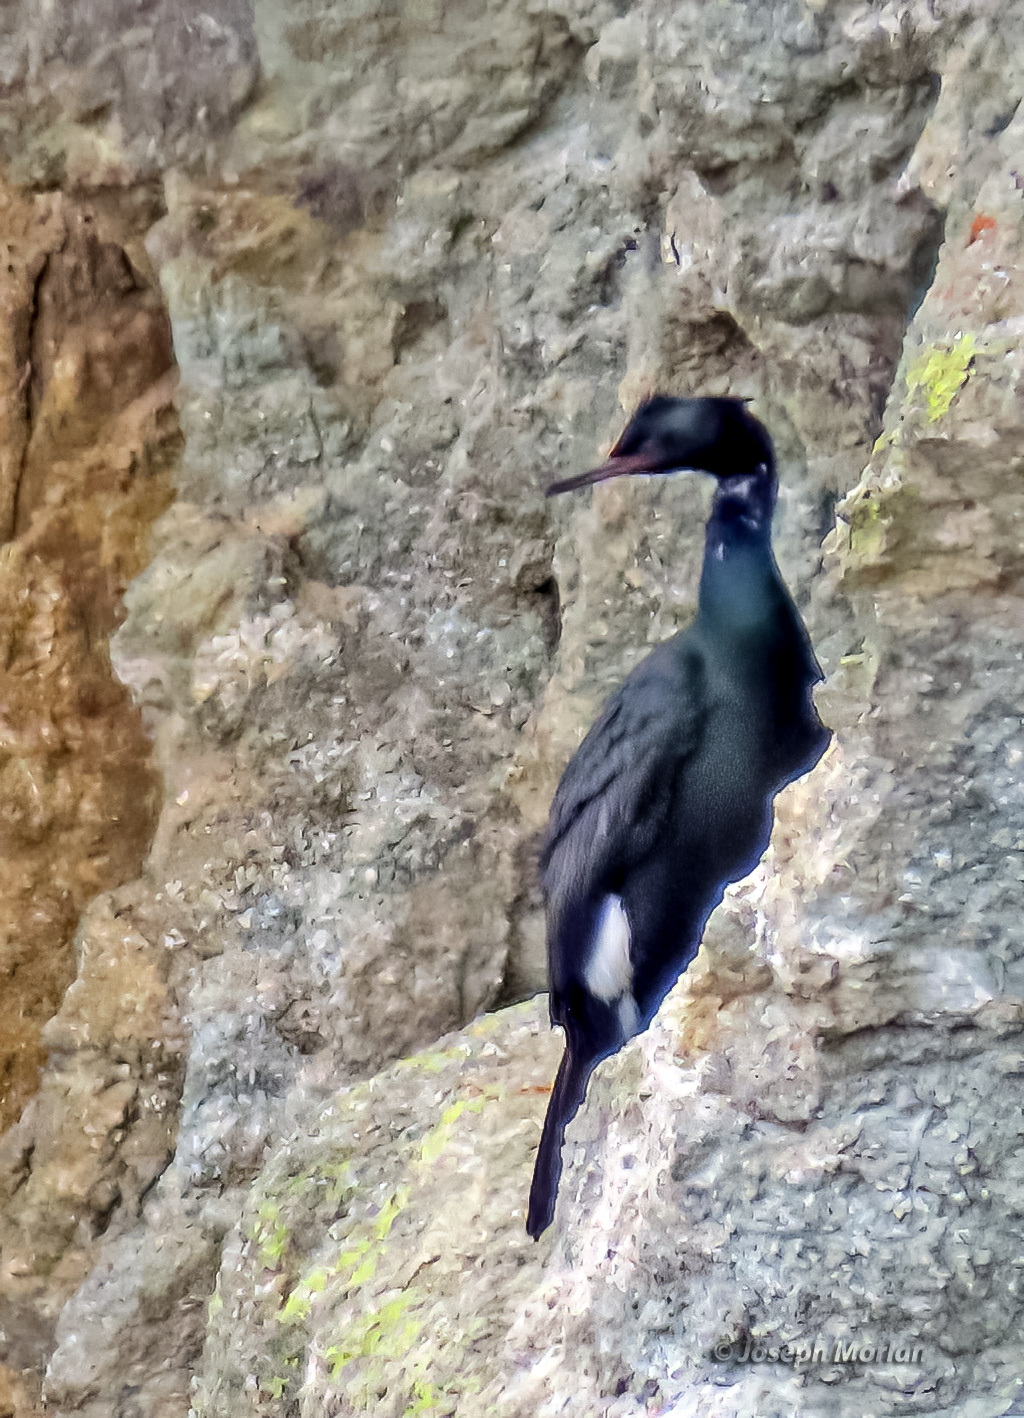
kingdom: Animalia
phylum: Chordata
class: Aves
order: Suliformes
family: Phalacrocoracidae
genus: Phalacrocorax
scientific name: Phalacrocorax pelagicus
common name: Pelagic cormorant
